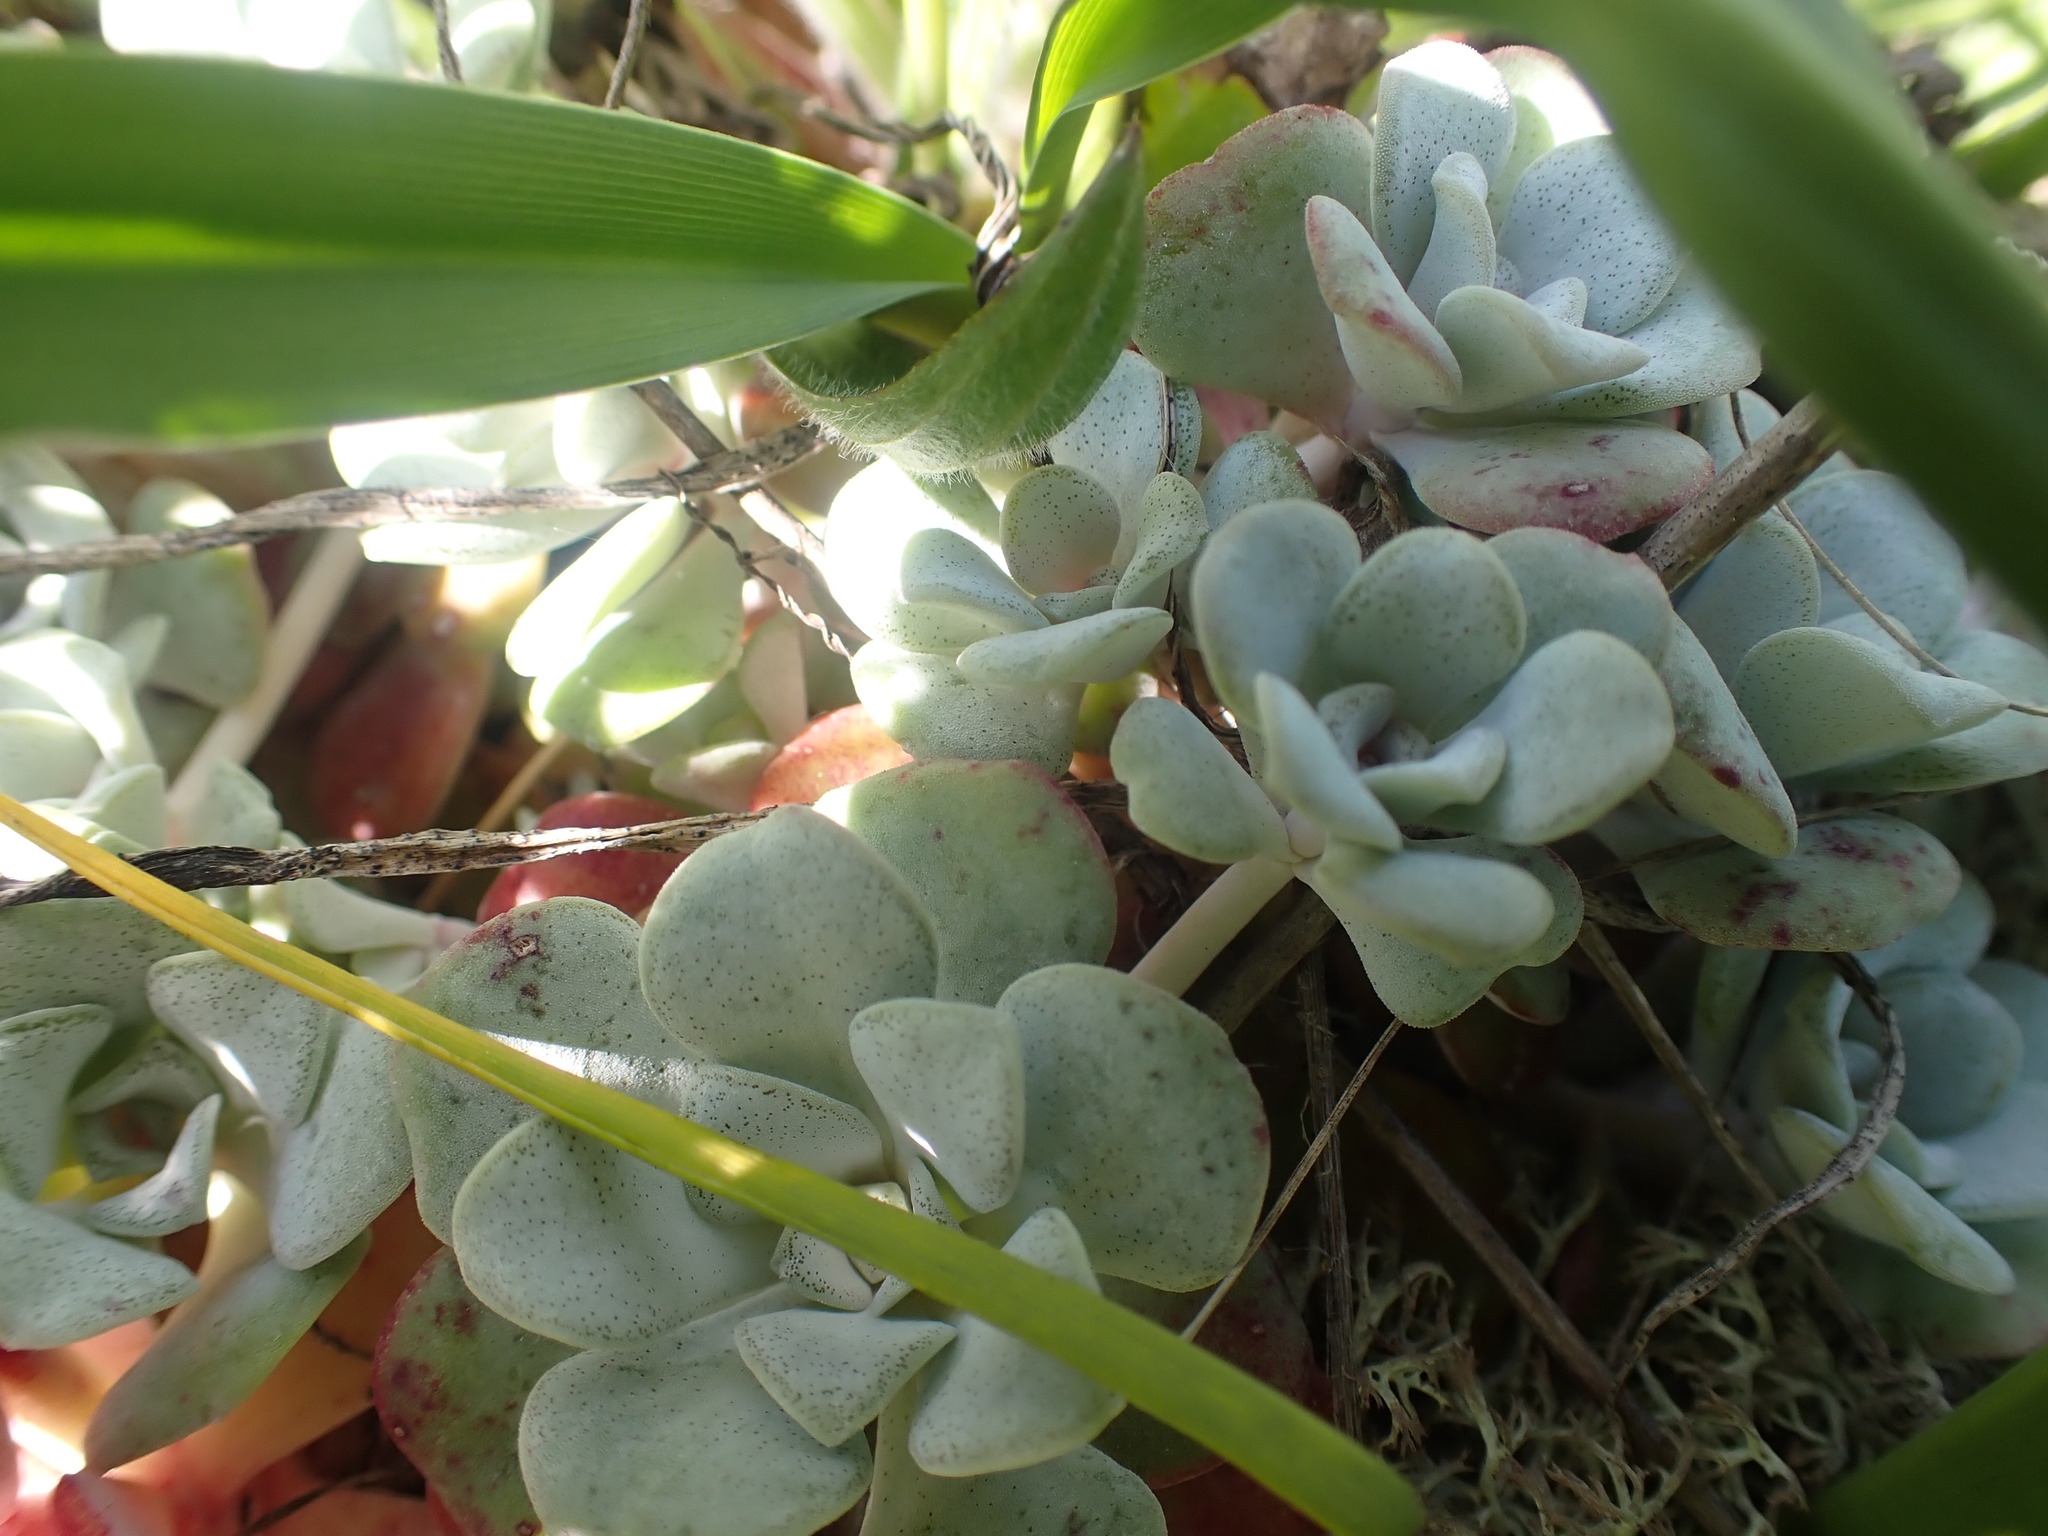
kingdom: Plantae
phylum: Tracheophyta
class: Magnoliopsida
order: Saxifragales
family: Crassulaceae
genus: Sedum
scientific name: Sedum spathulifolium
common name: Colorado stonecrop
